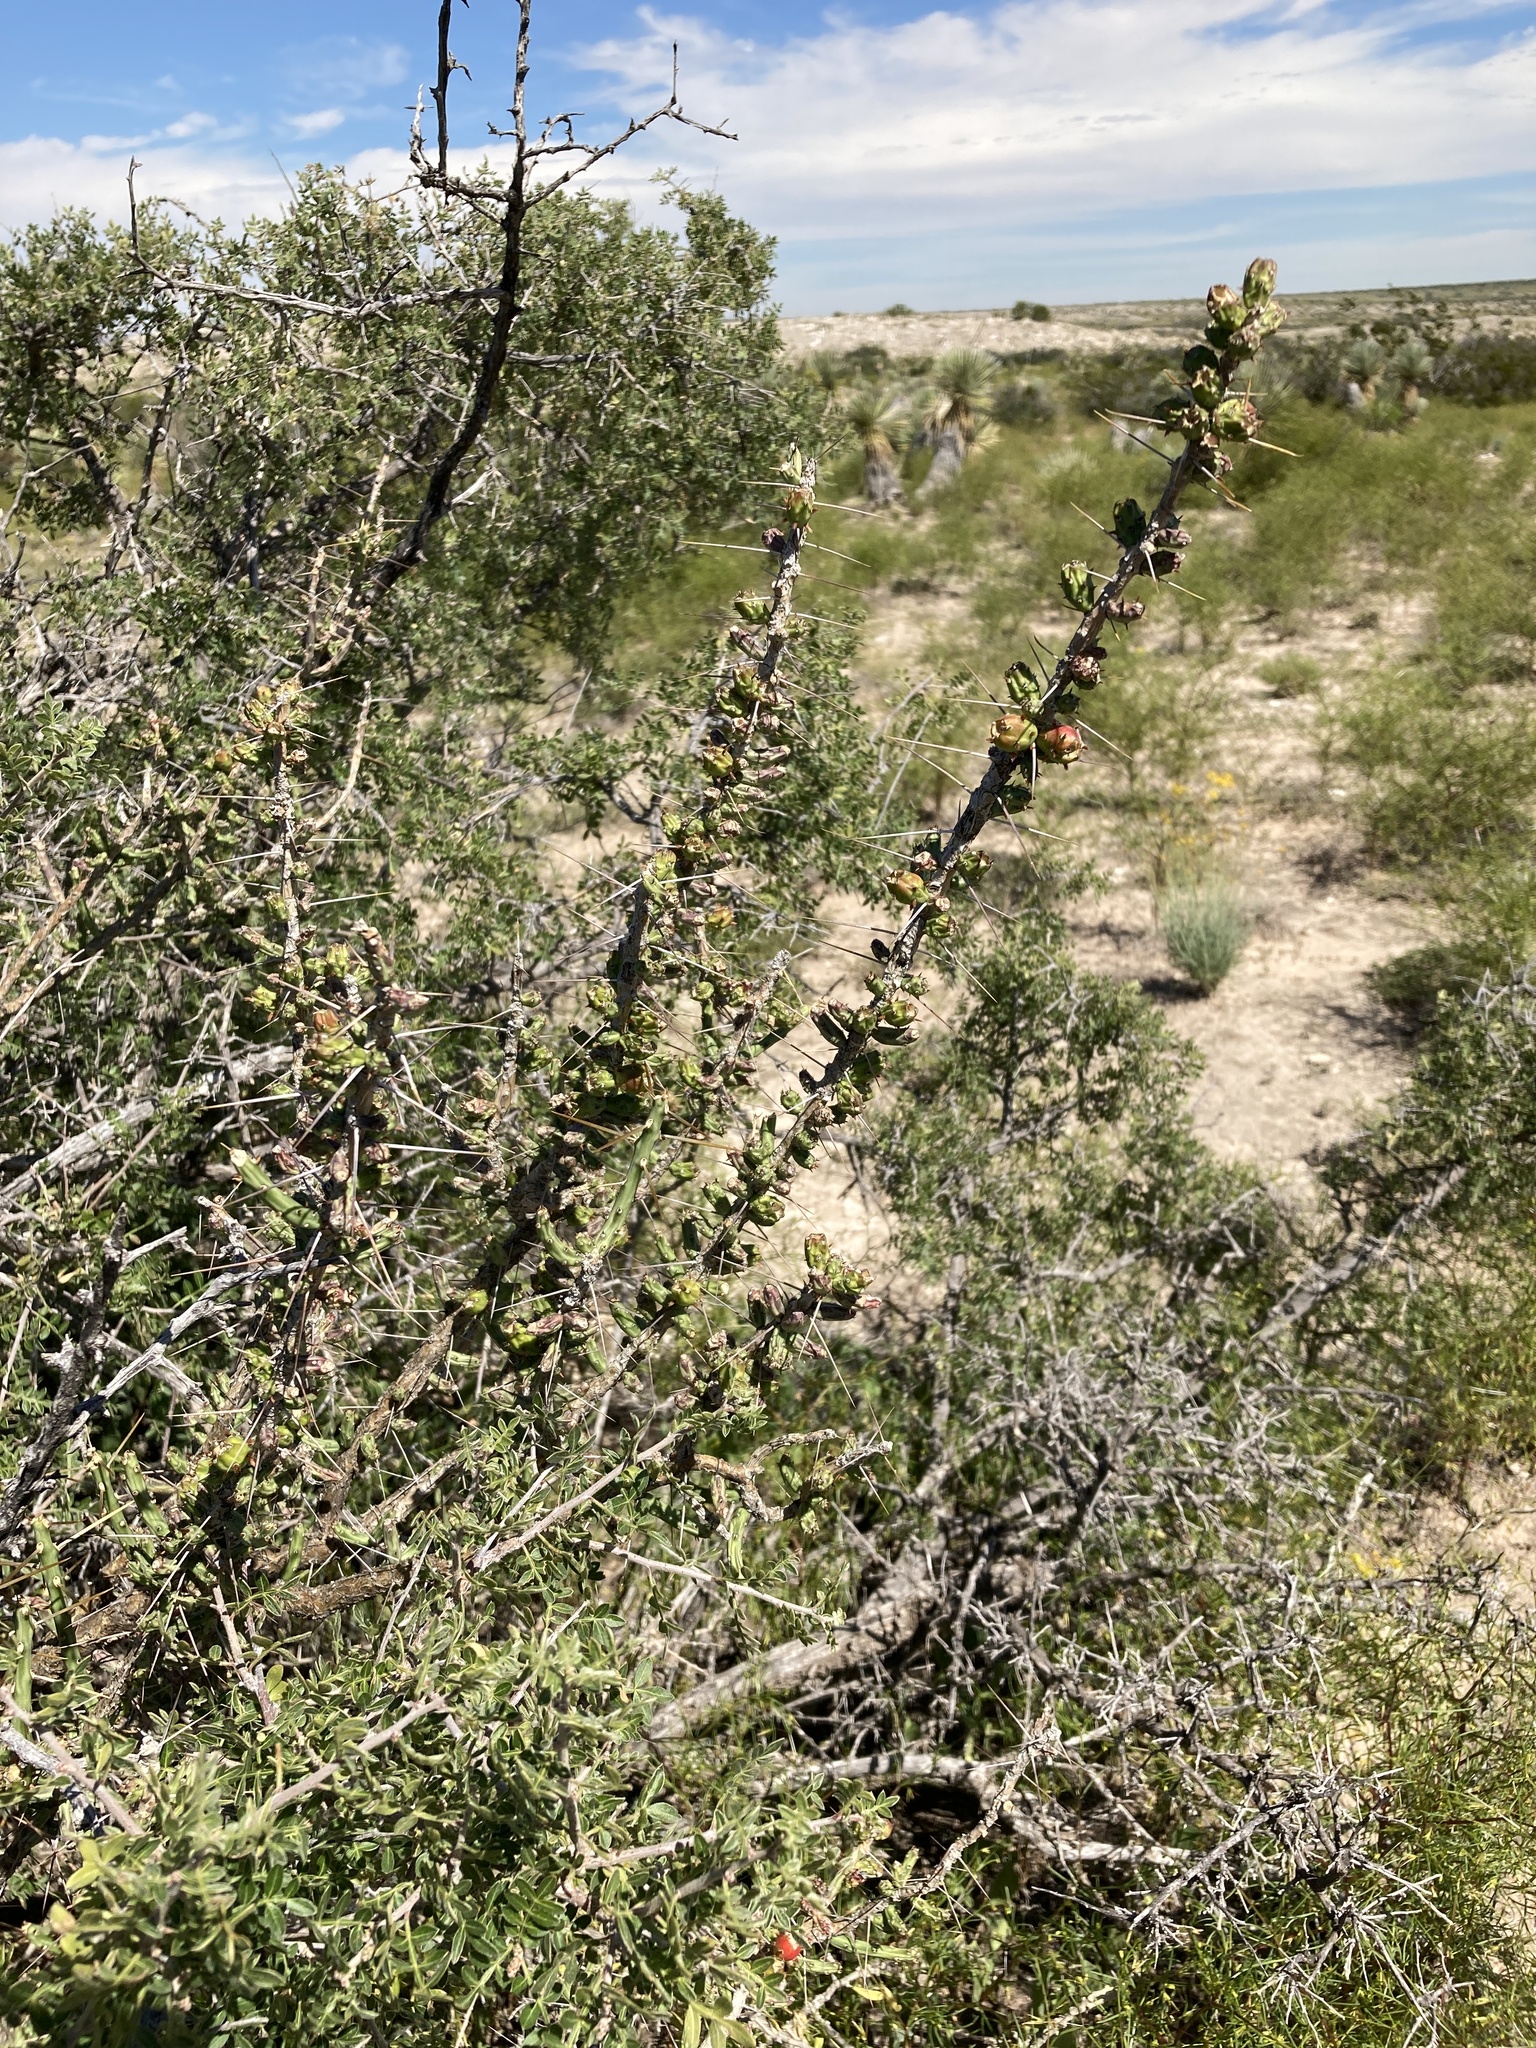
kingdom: Plantae
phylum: Tracheophyta
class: Magnoliopsida
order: Caryophyllales
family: Cactaceae
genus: Cylindropuntia
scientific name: Cylindropuntia leptocaulis
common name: Christmas cactus
